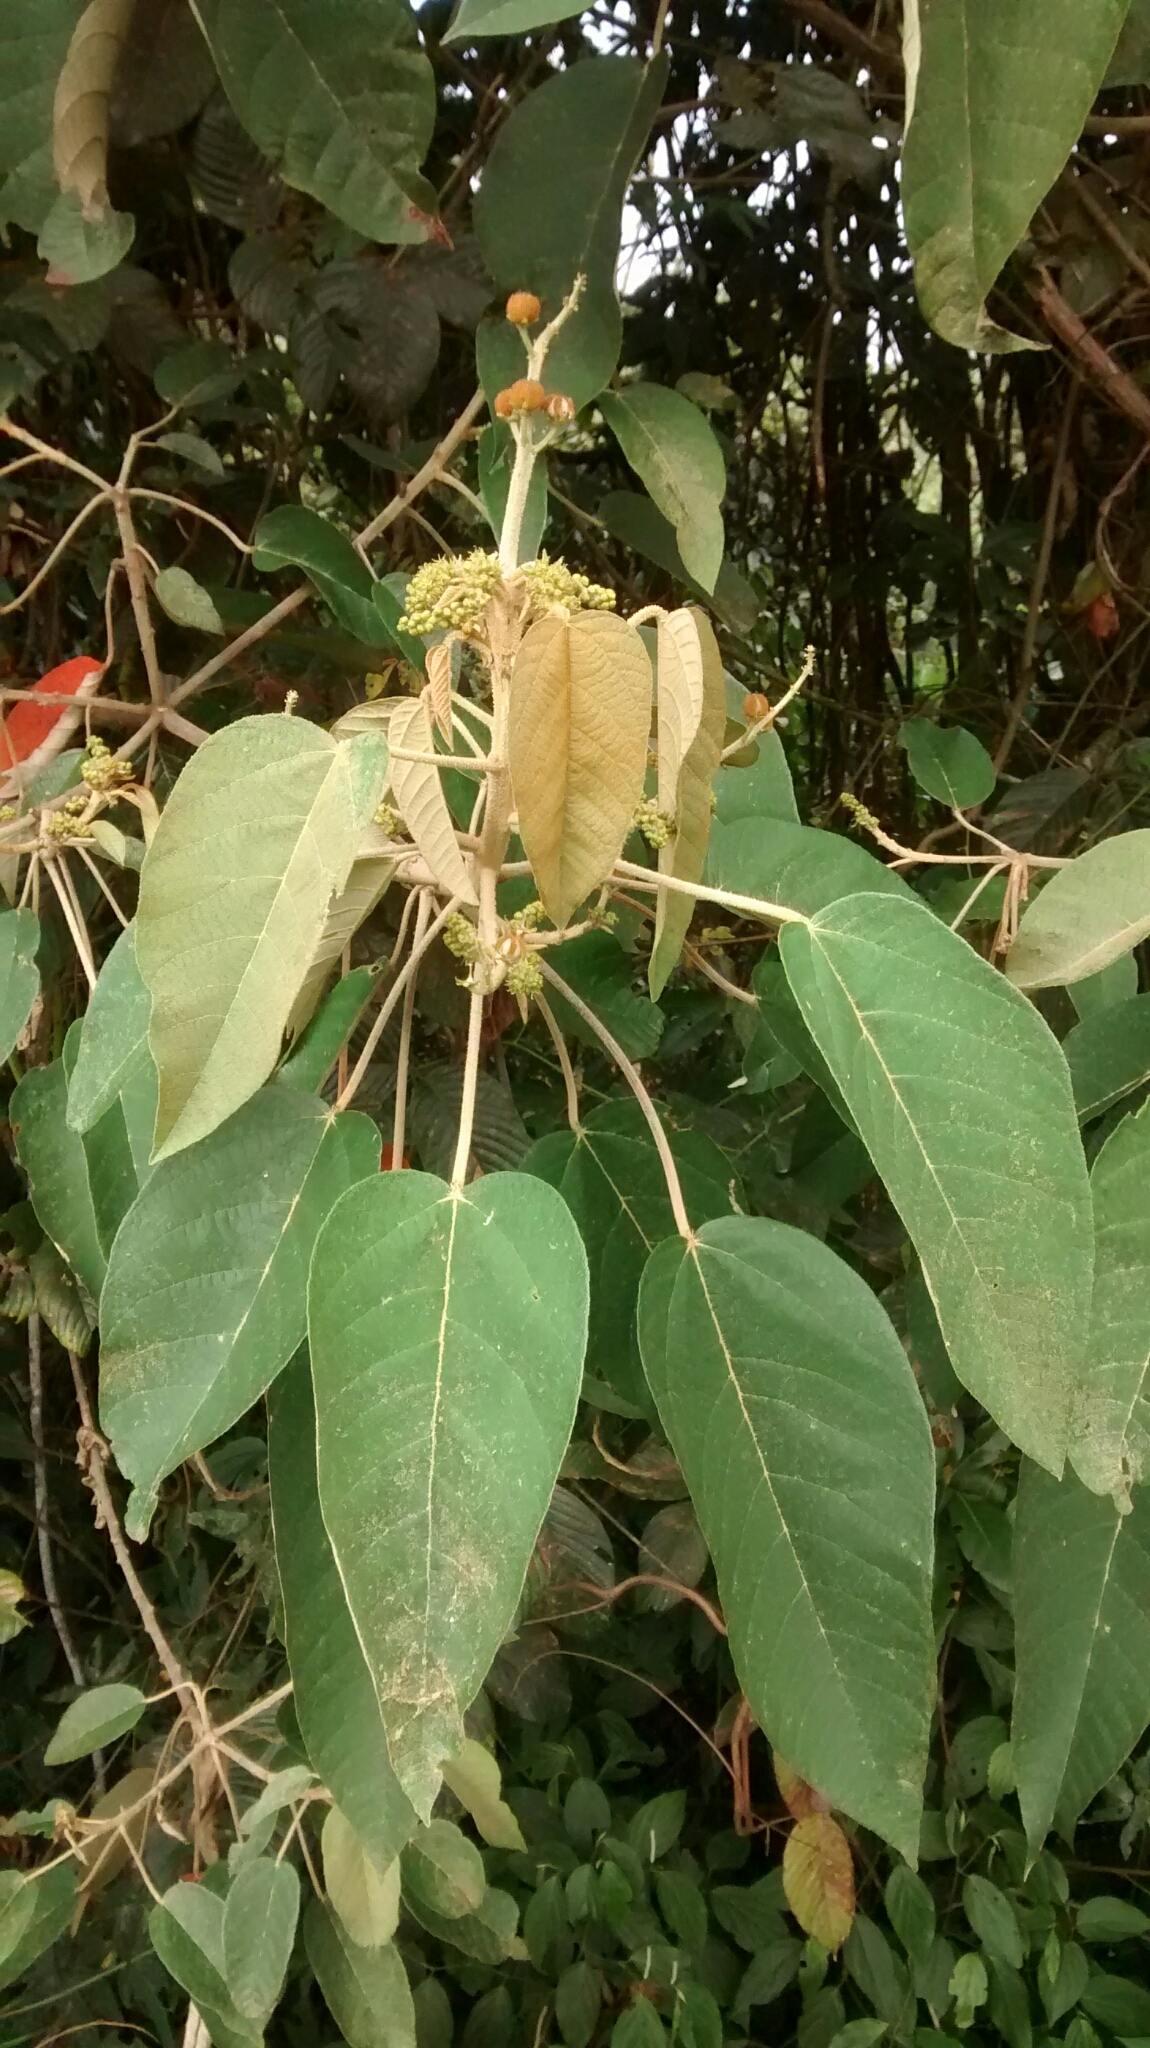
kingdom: Plantae
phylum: Tracheophyta
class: Magnoliopsida
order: Malpighiales
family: Euphorbiaceae
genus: Croton
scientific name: Croton mutisianus
